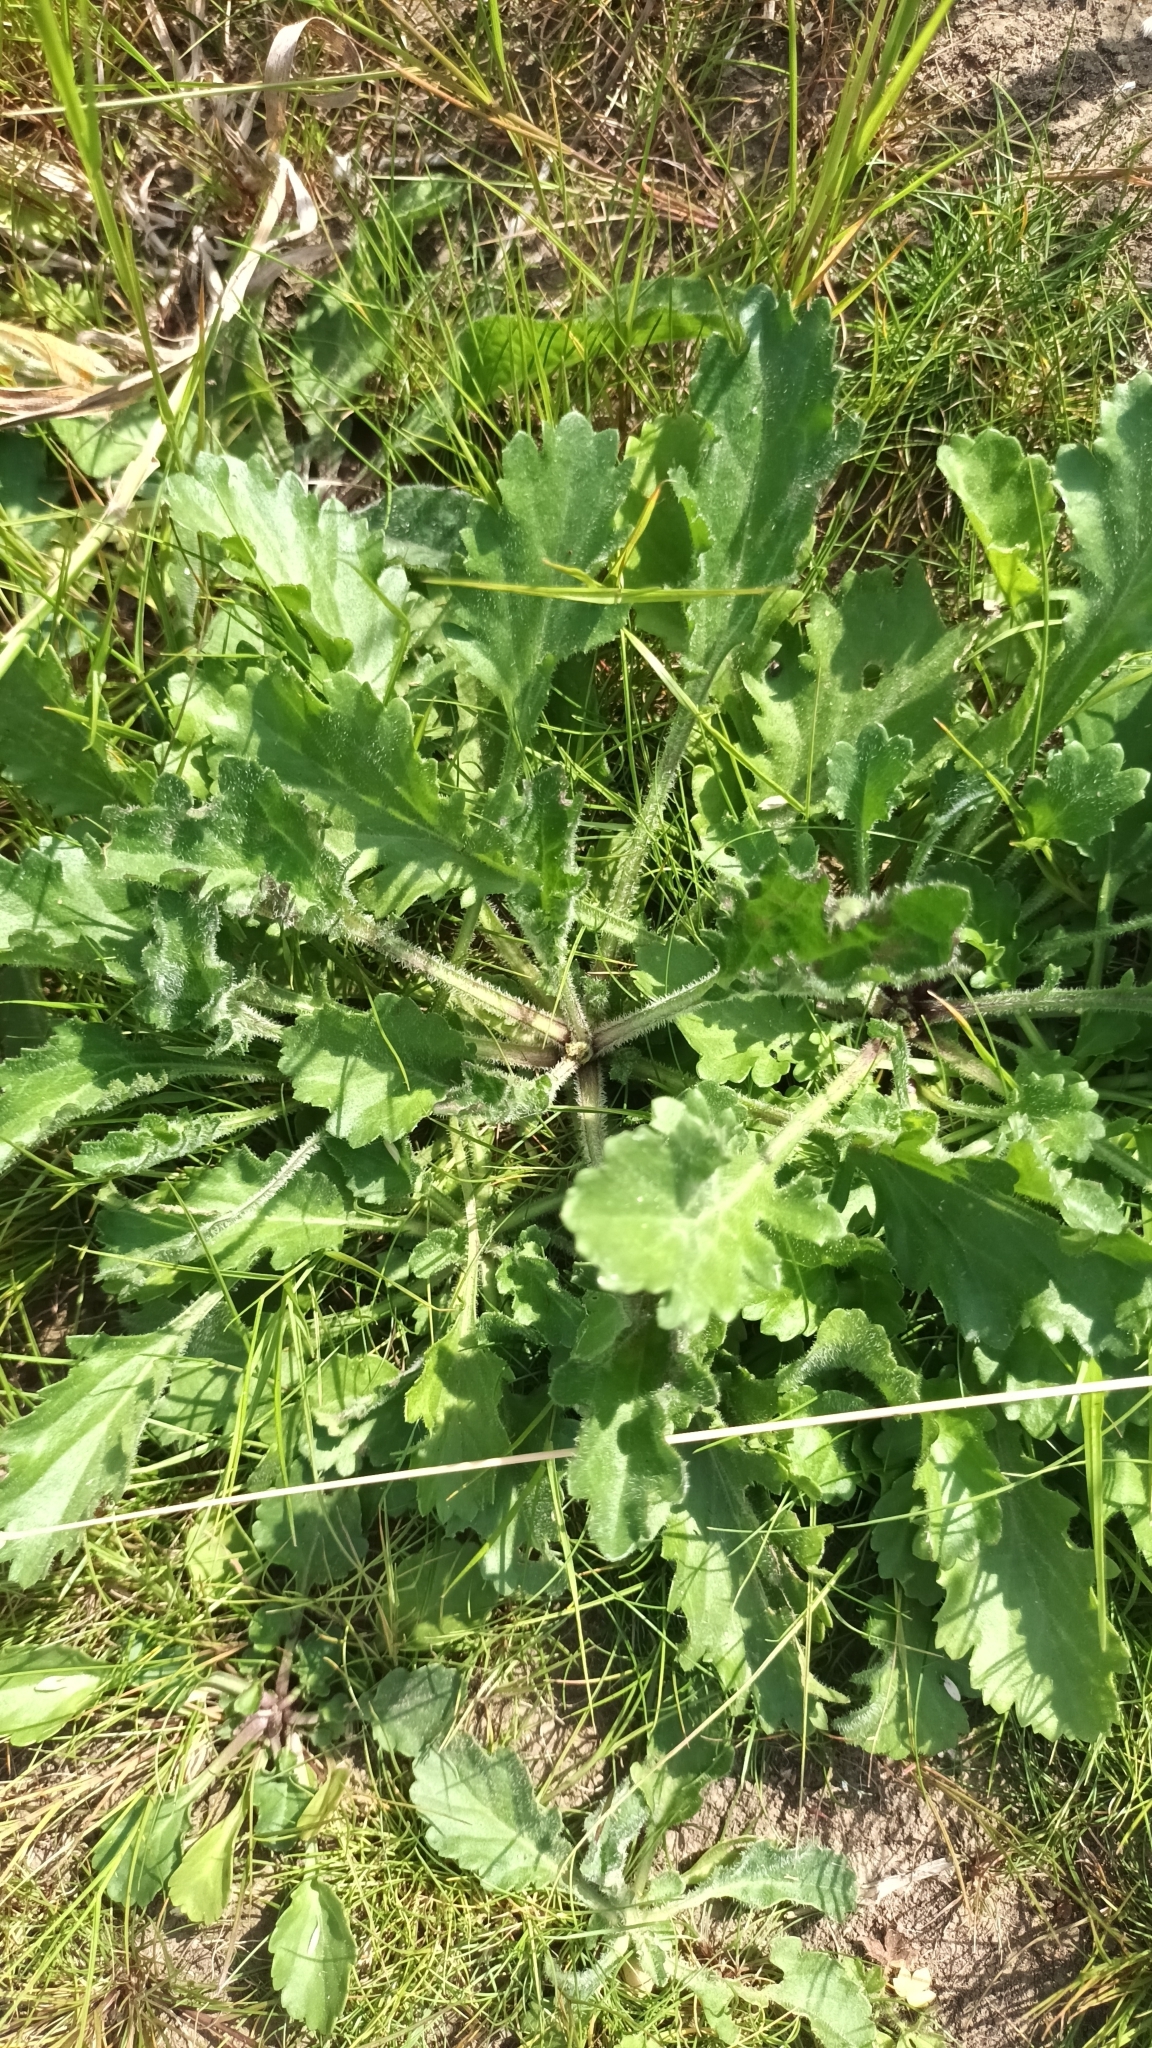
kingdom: Plantae
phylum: Tracheophyta
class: Magnoliopsida
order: Asterales
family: Asteraceae
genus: Leucanthemum
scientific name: Leucanthemum vulgare
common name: Oxeye daisy
